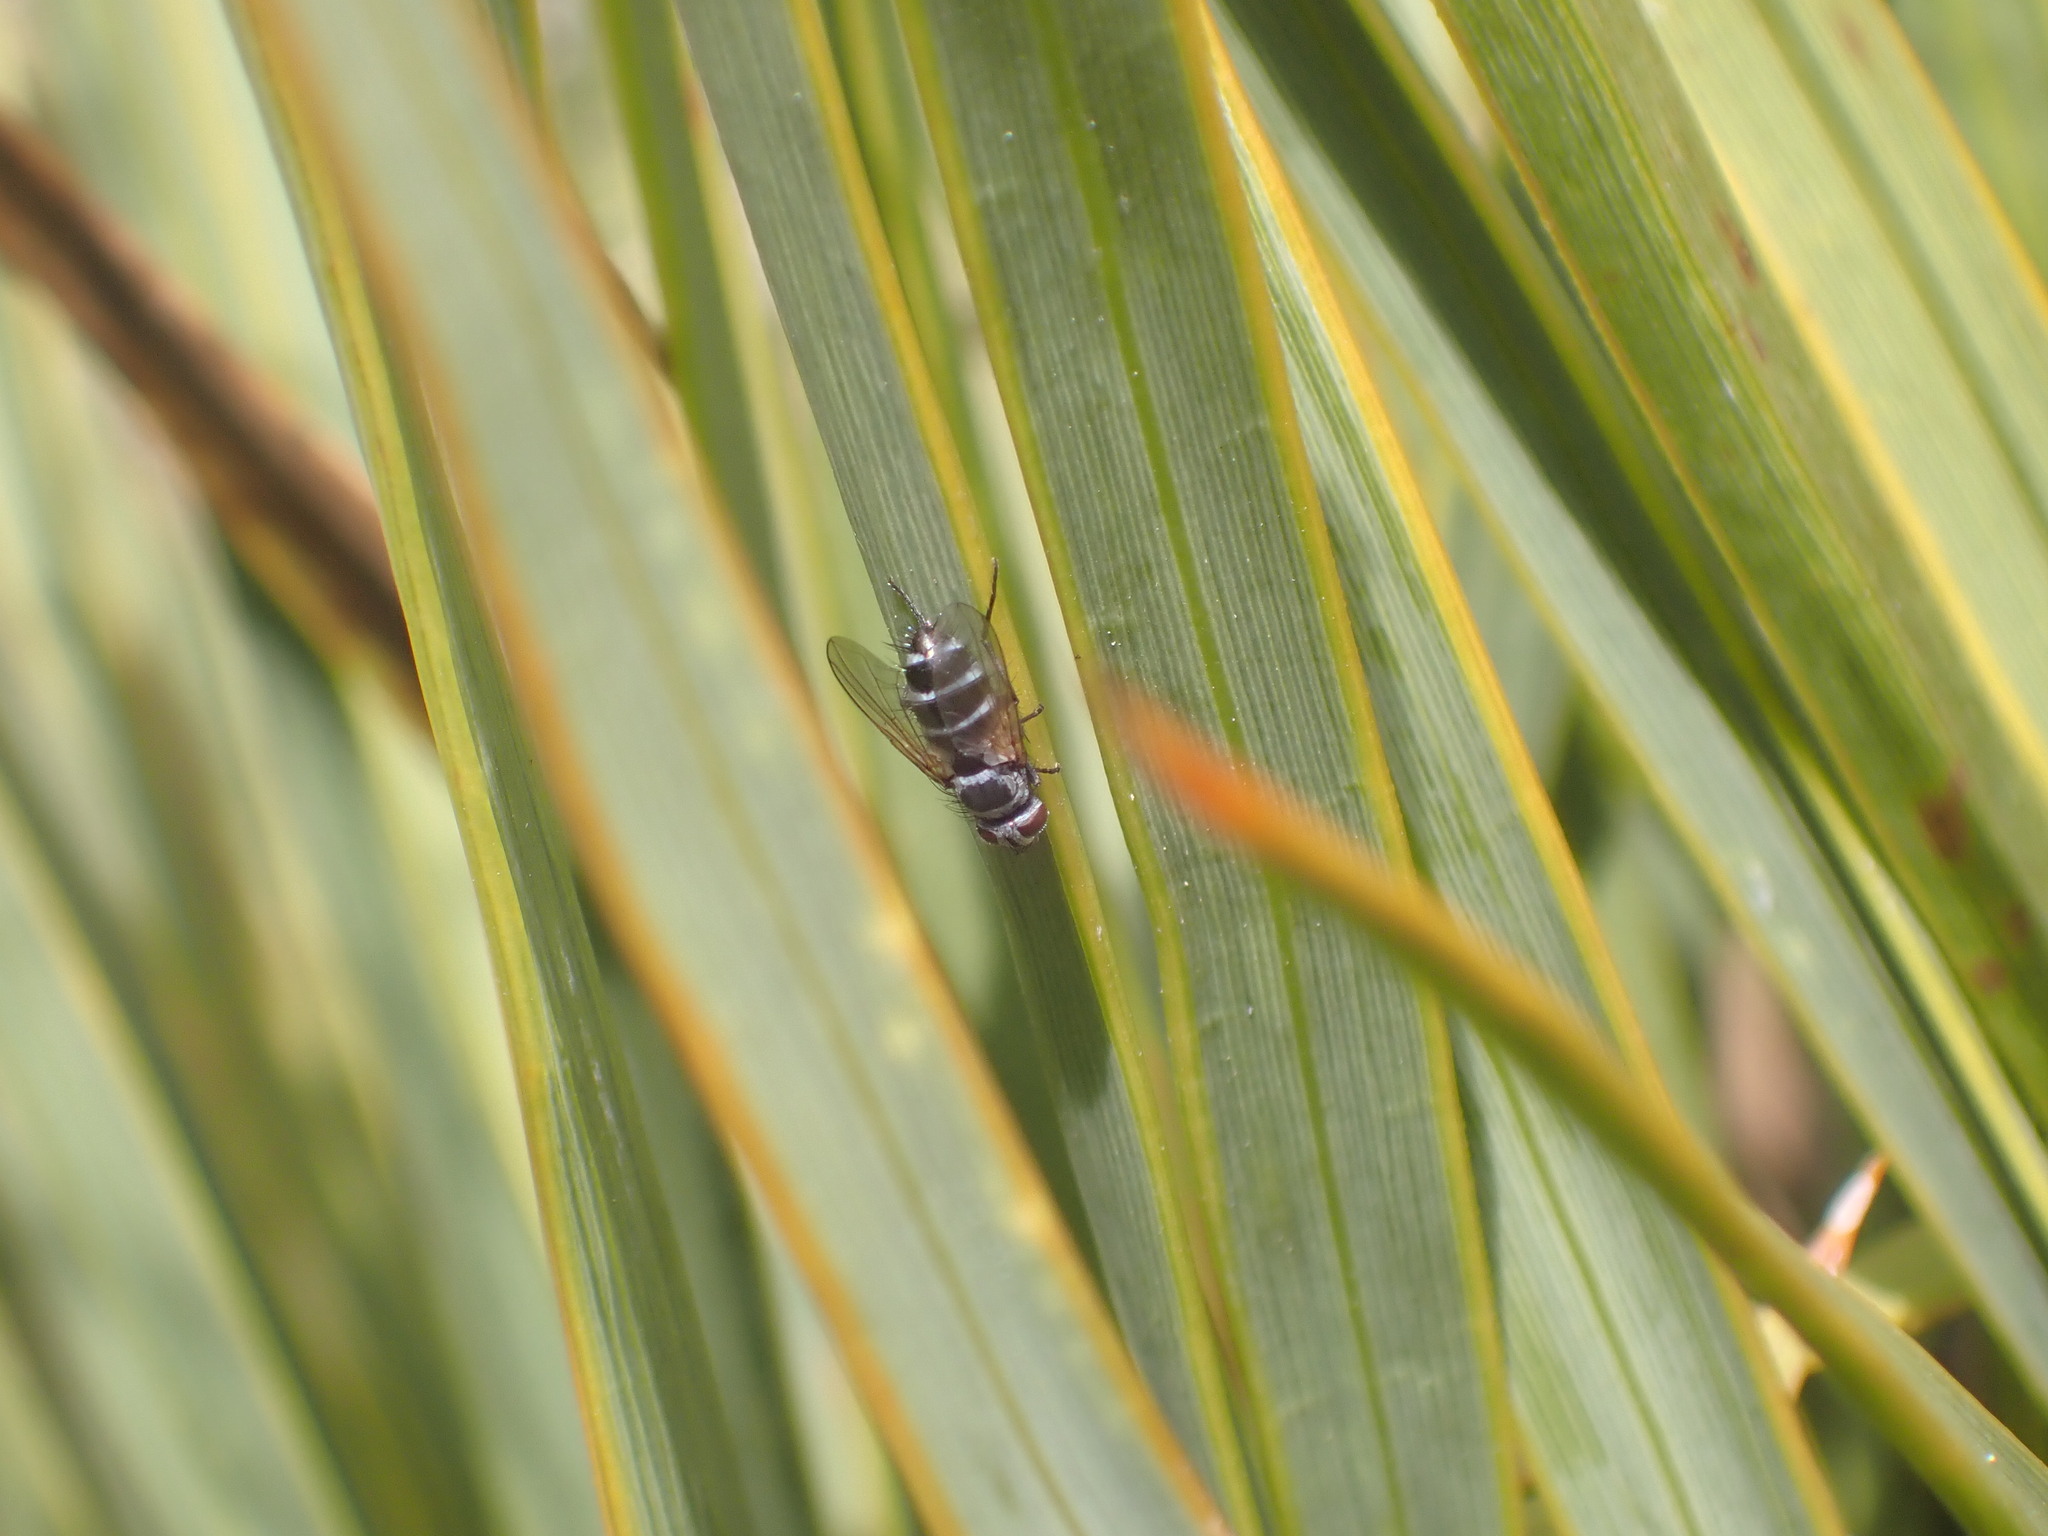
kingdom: Animalia
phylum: Arthropoda
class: Insecta
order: Diptera
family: Tachinidae
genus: Trigonospila
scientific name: Trigonospila brevifacies
